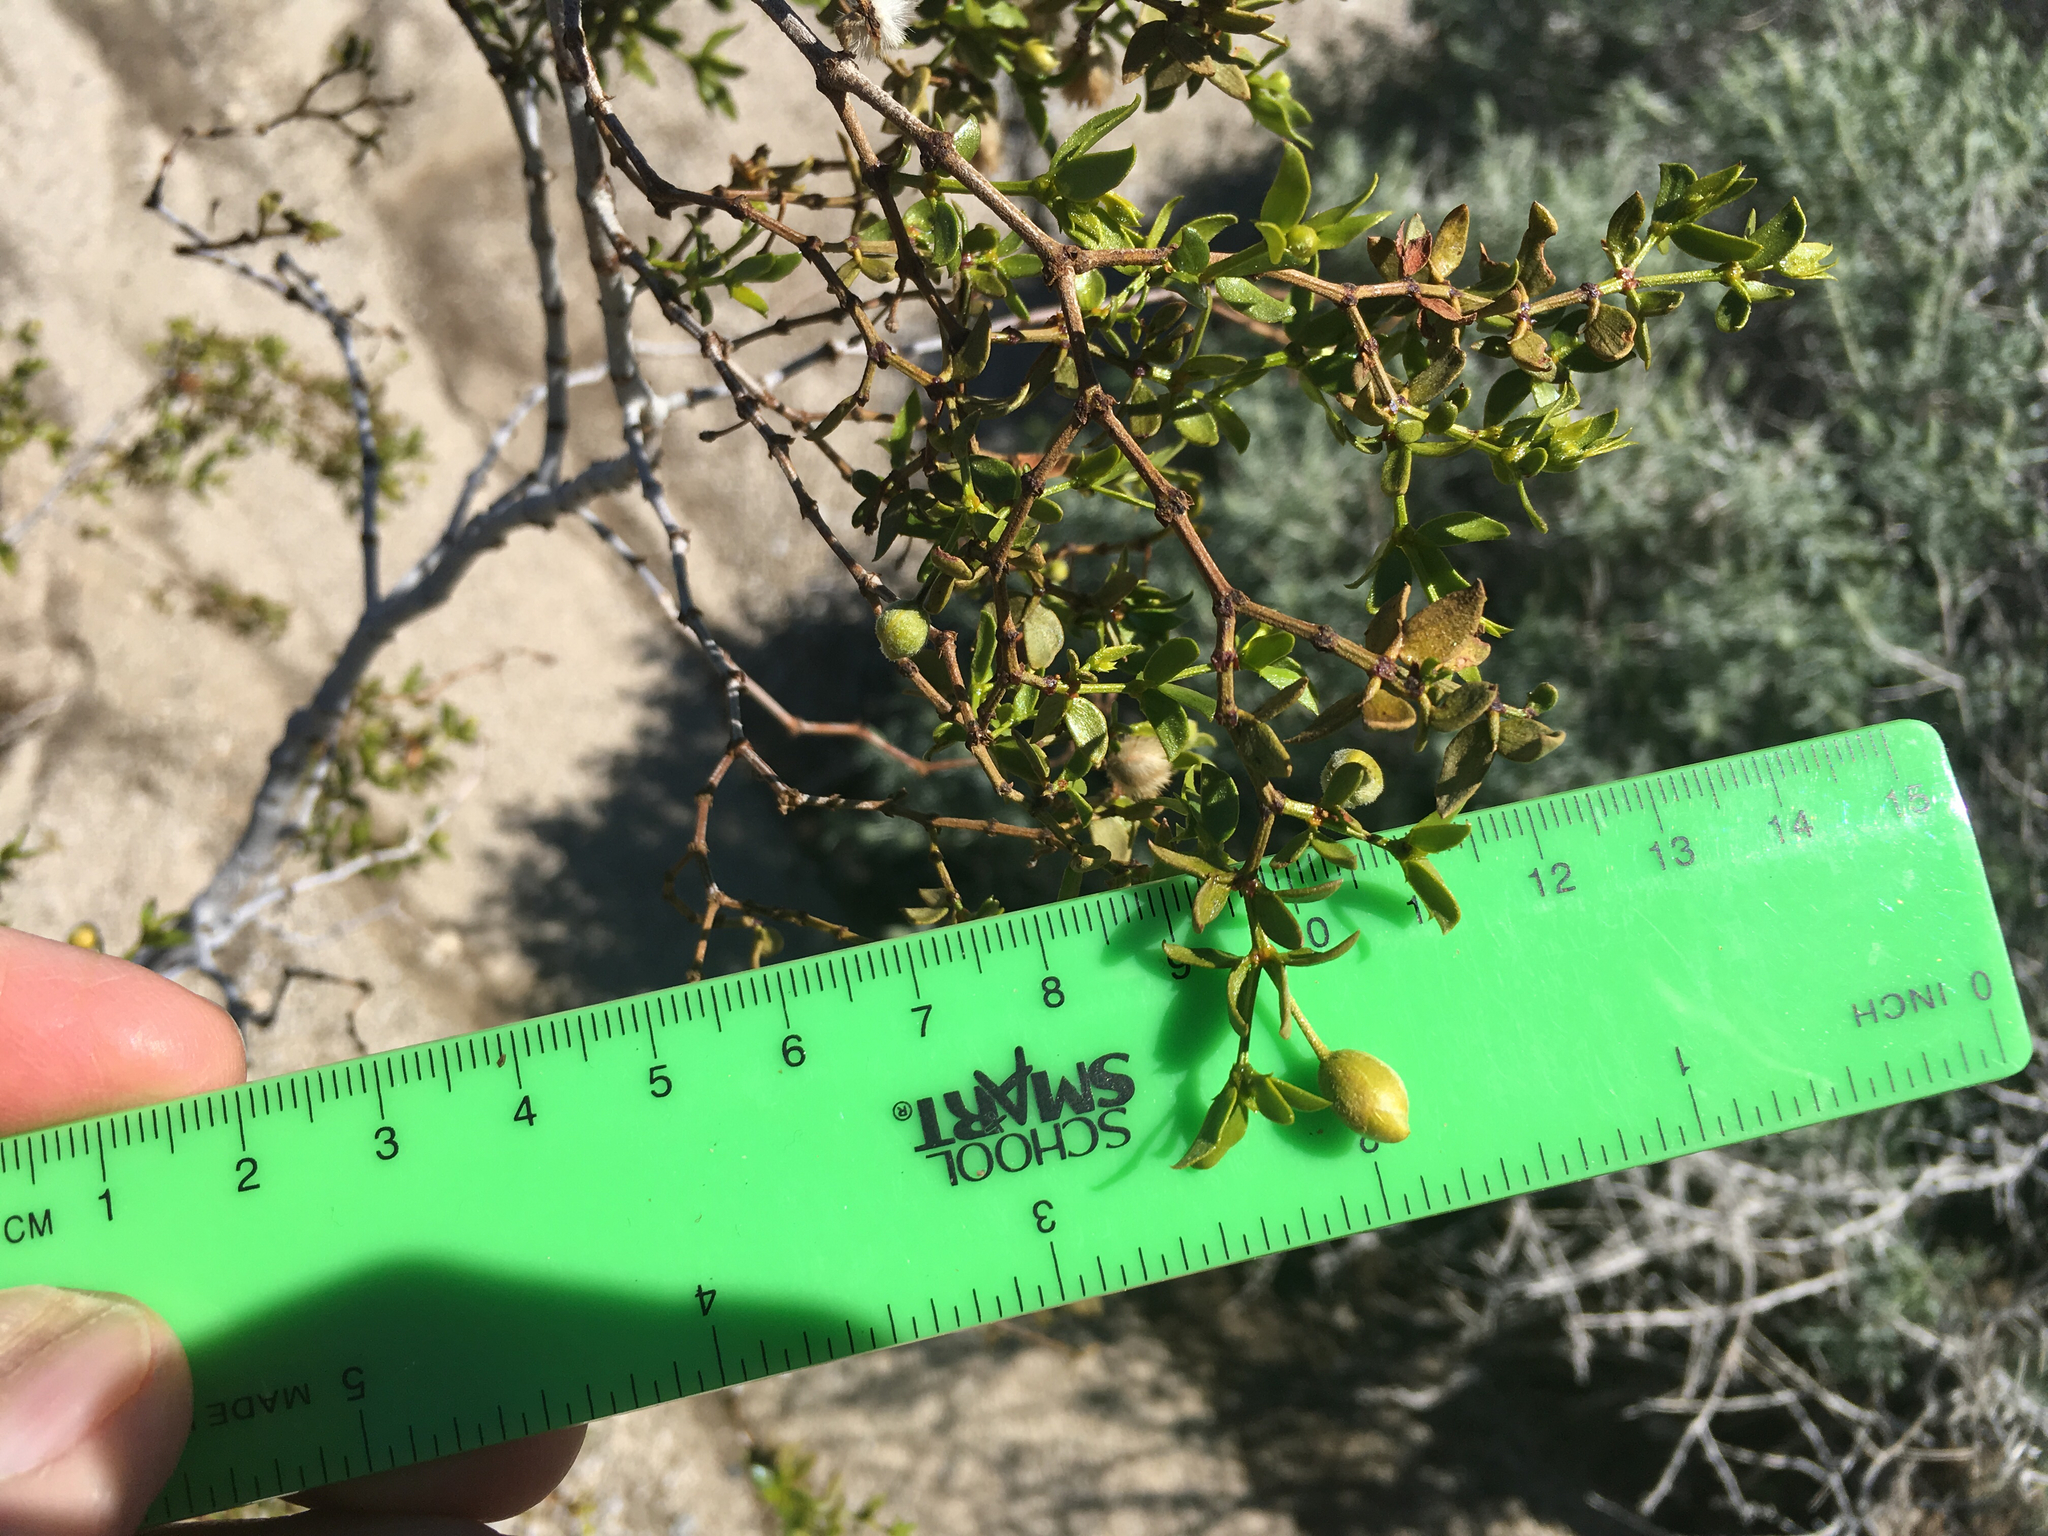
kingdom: Plantae
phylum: Tracheophyta
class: Magnoliopsida
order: Zygophyllales
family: Zygophyllaceae
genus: Larrea
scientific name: Larrea tridentata
